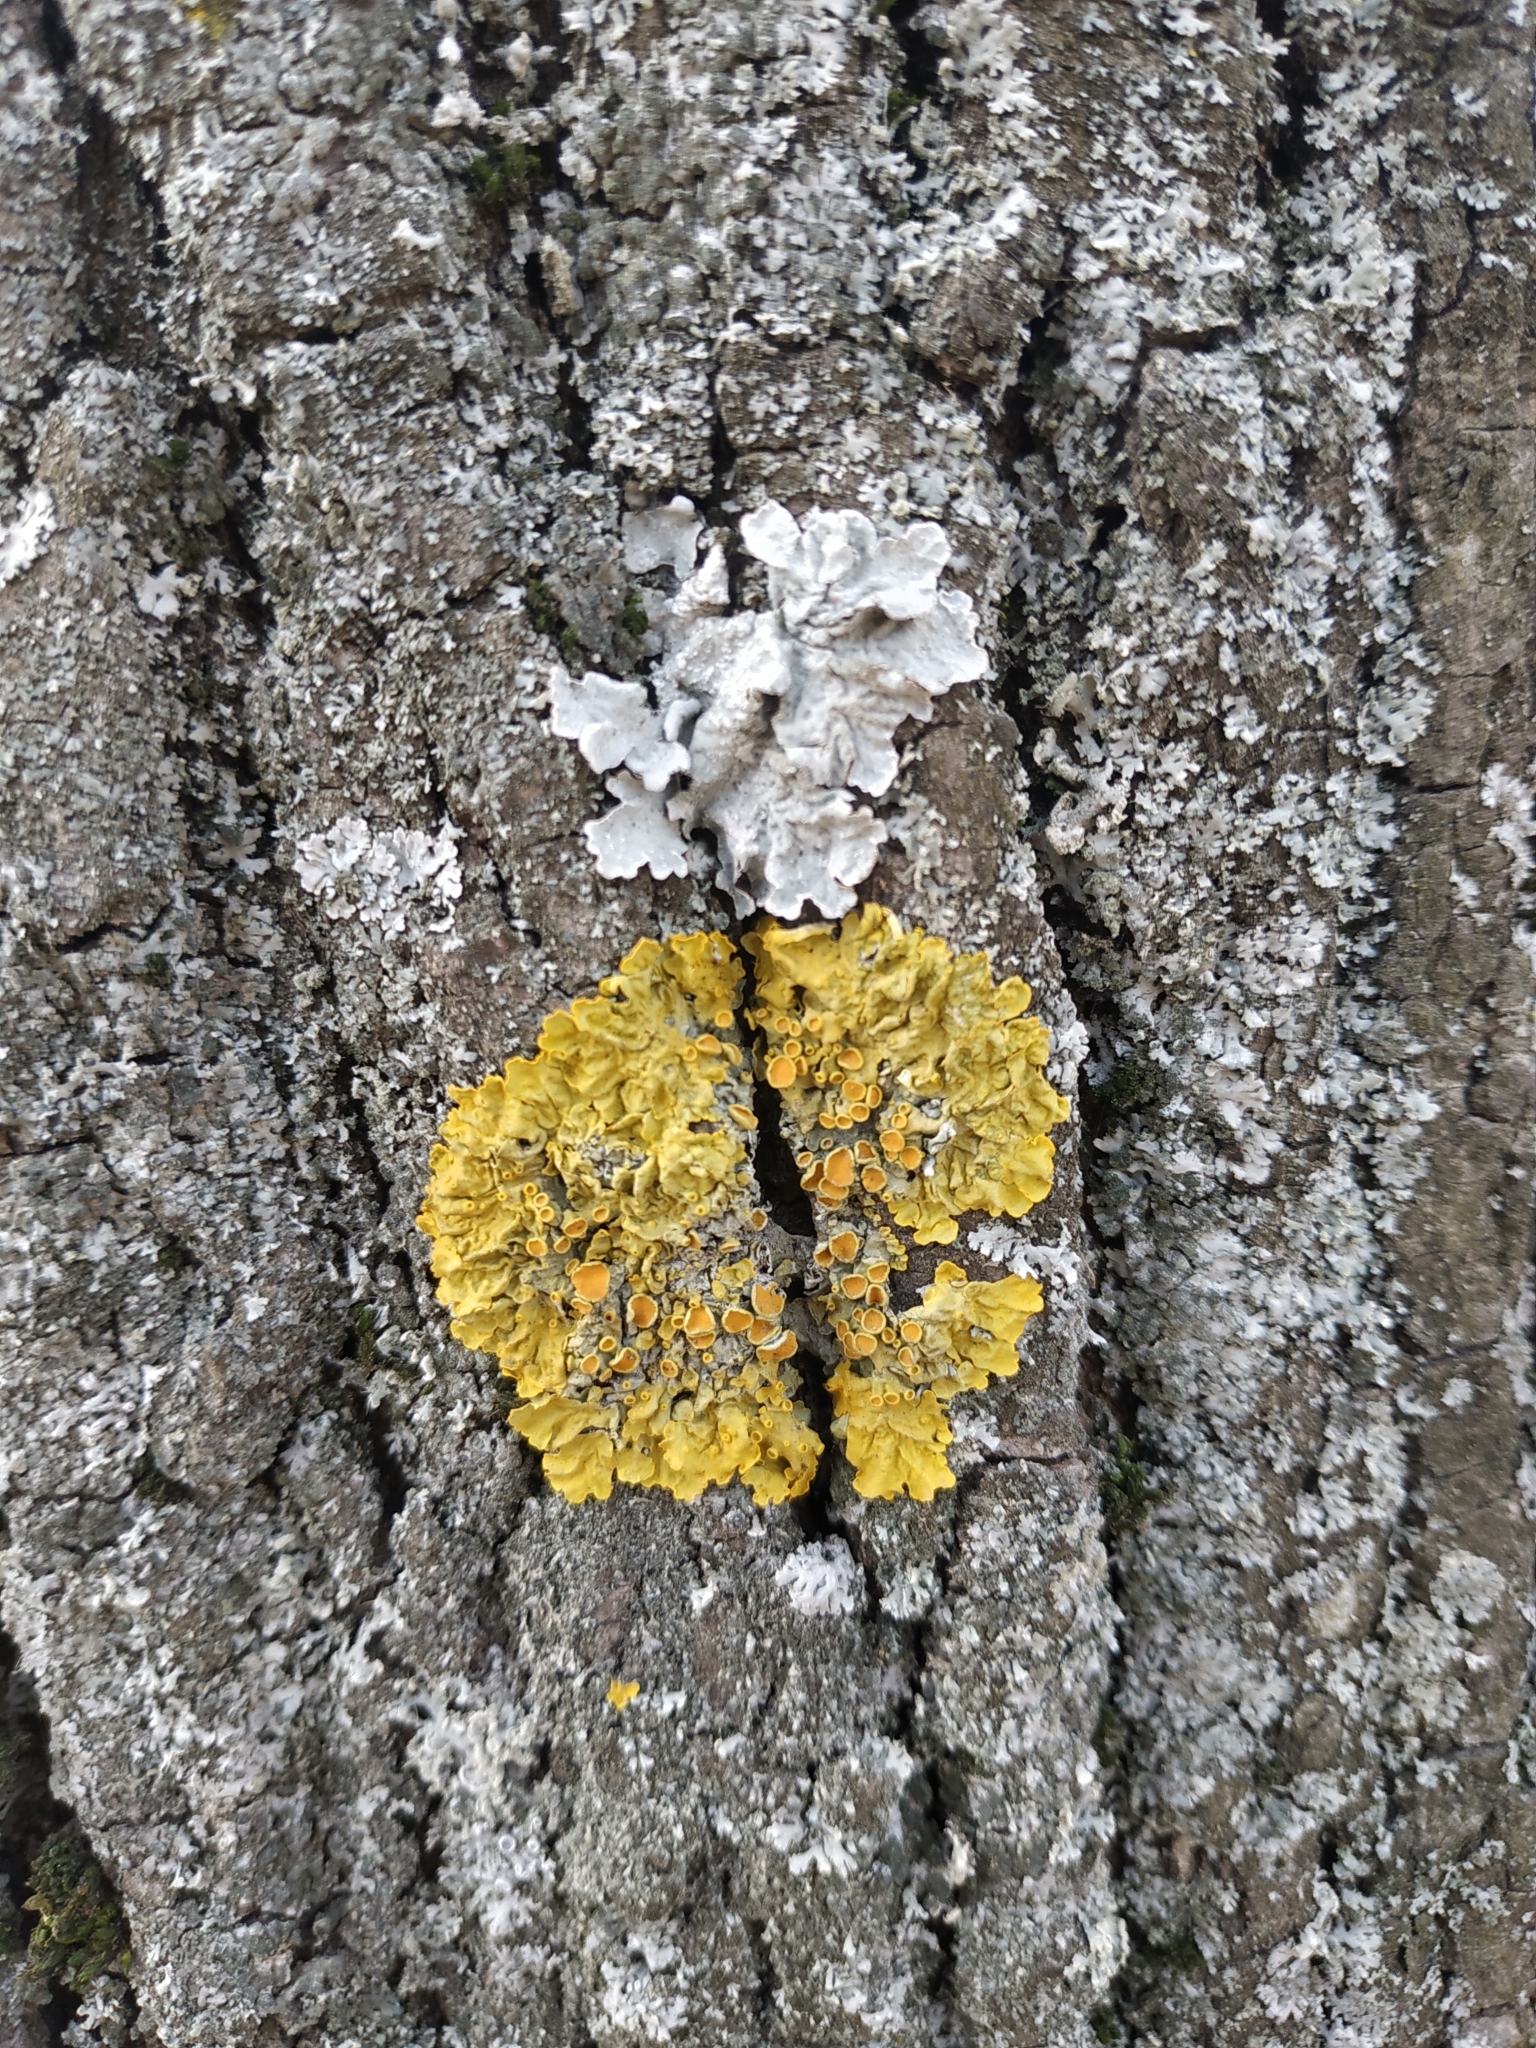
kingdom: Fungi
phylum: Ascomycota
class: Lecanoromycetes
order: Teloschistales
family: Teloschistaceae
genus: Xanthoria
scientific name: Xanthoria parietina
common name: Common orange lichen
